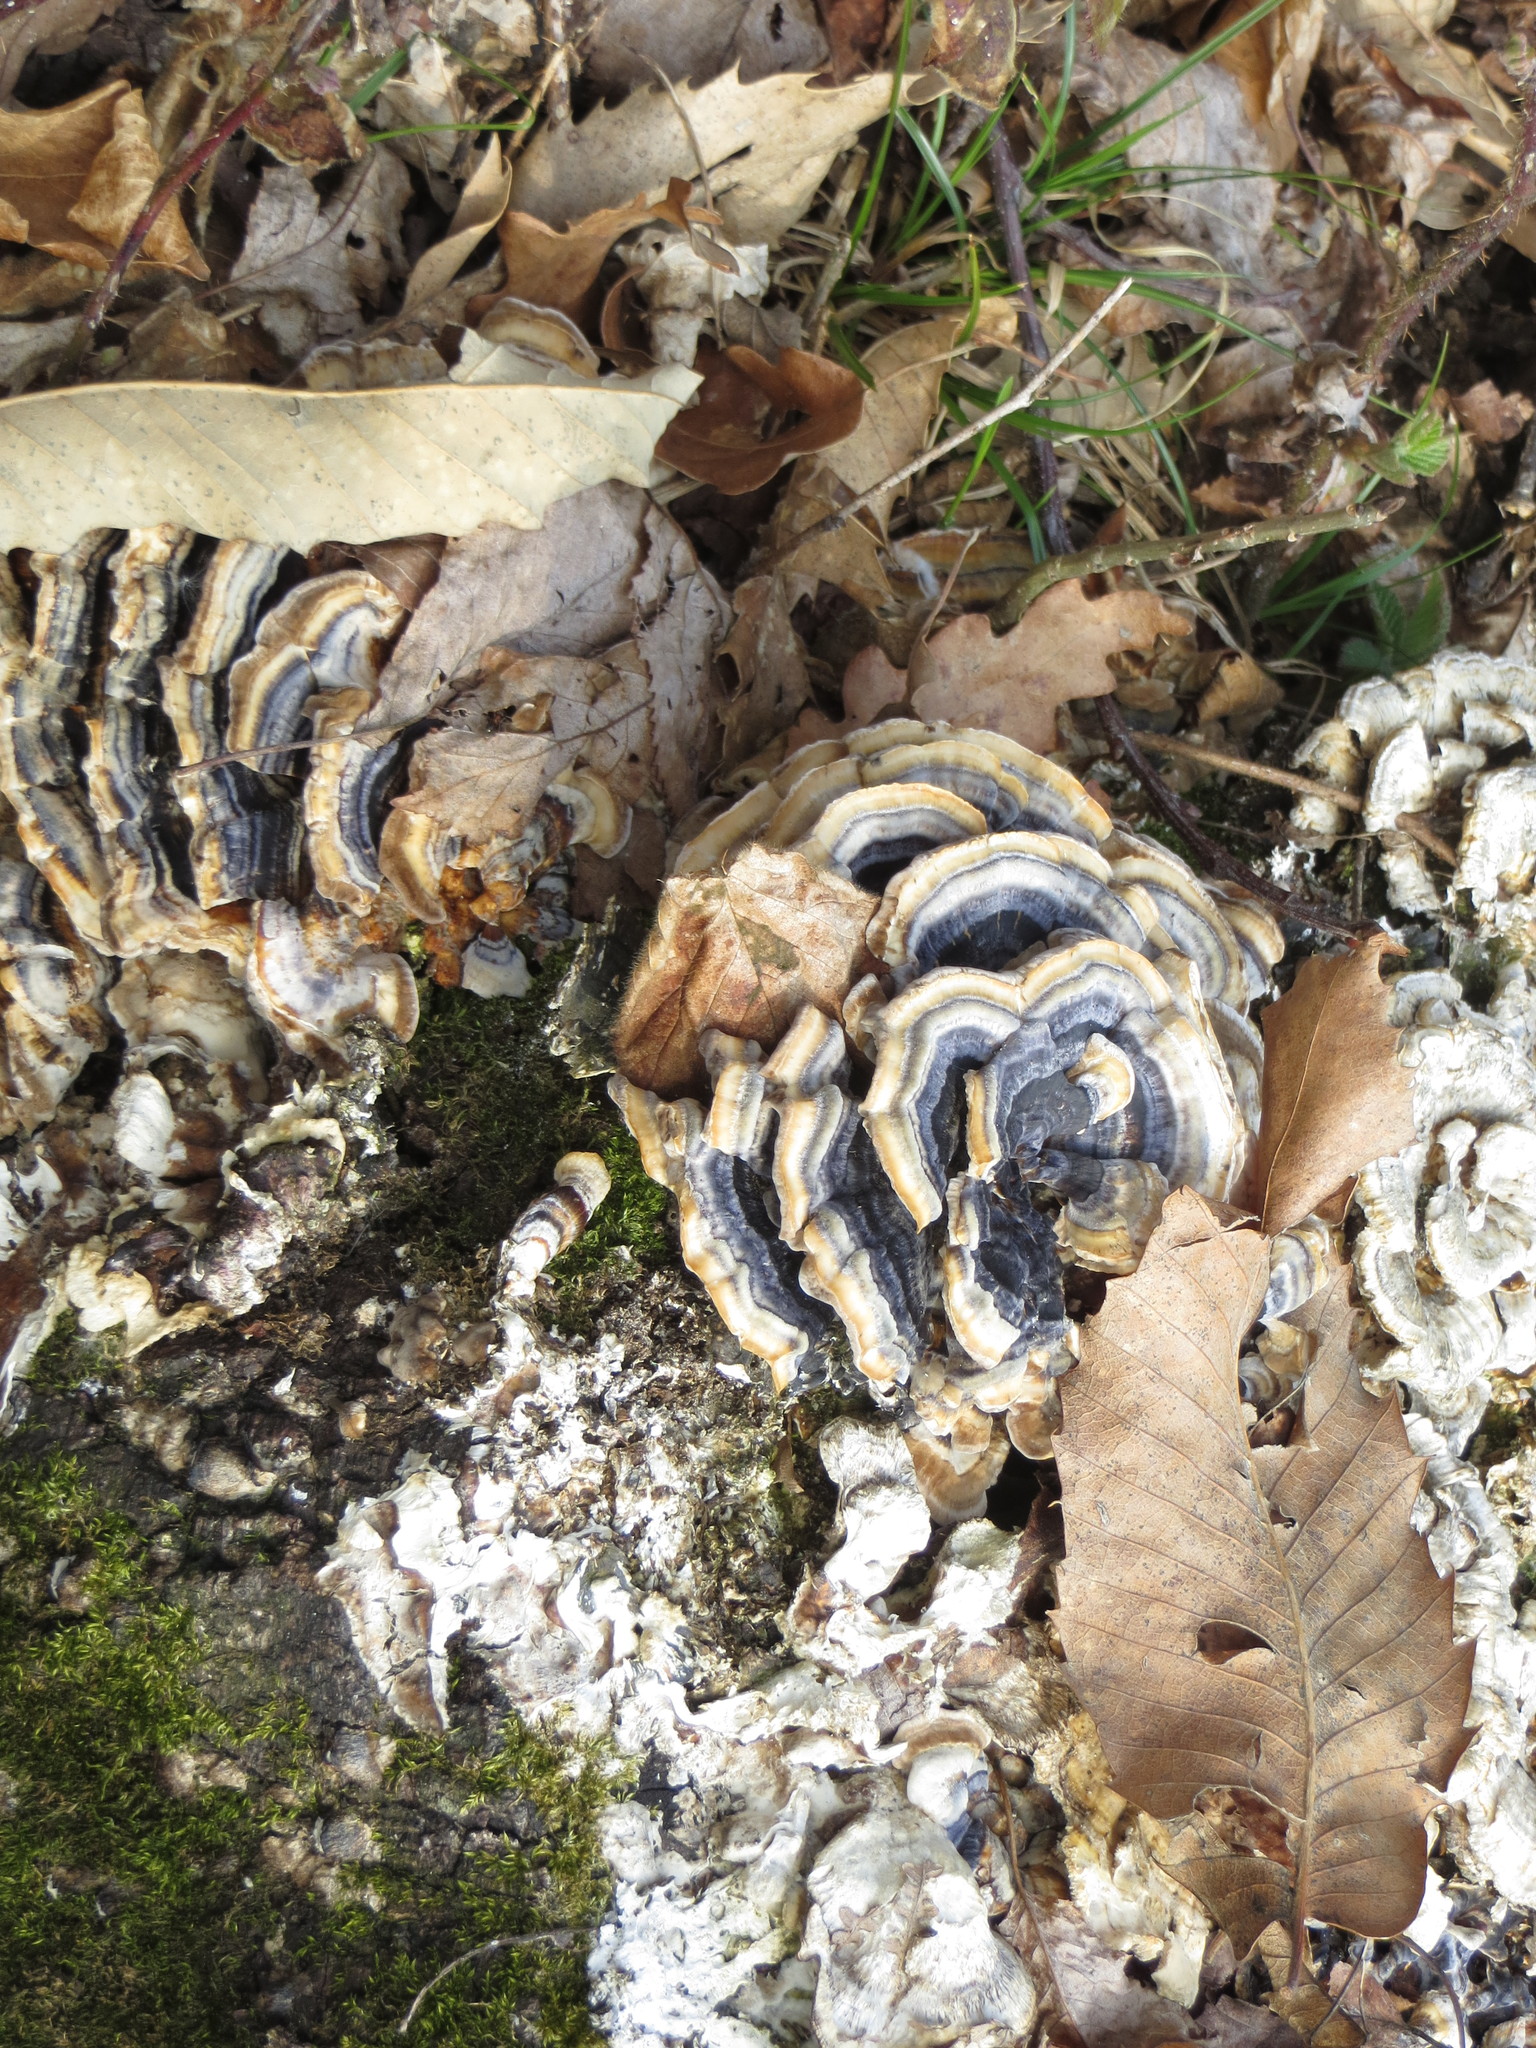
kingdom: Fungi
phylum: Basidiomycota
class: Agaricomycetes
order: Polyporales
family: Polyporaceae
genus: Trametes
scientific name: Trametes versicolor
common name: Turkeytail
